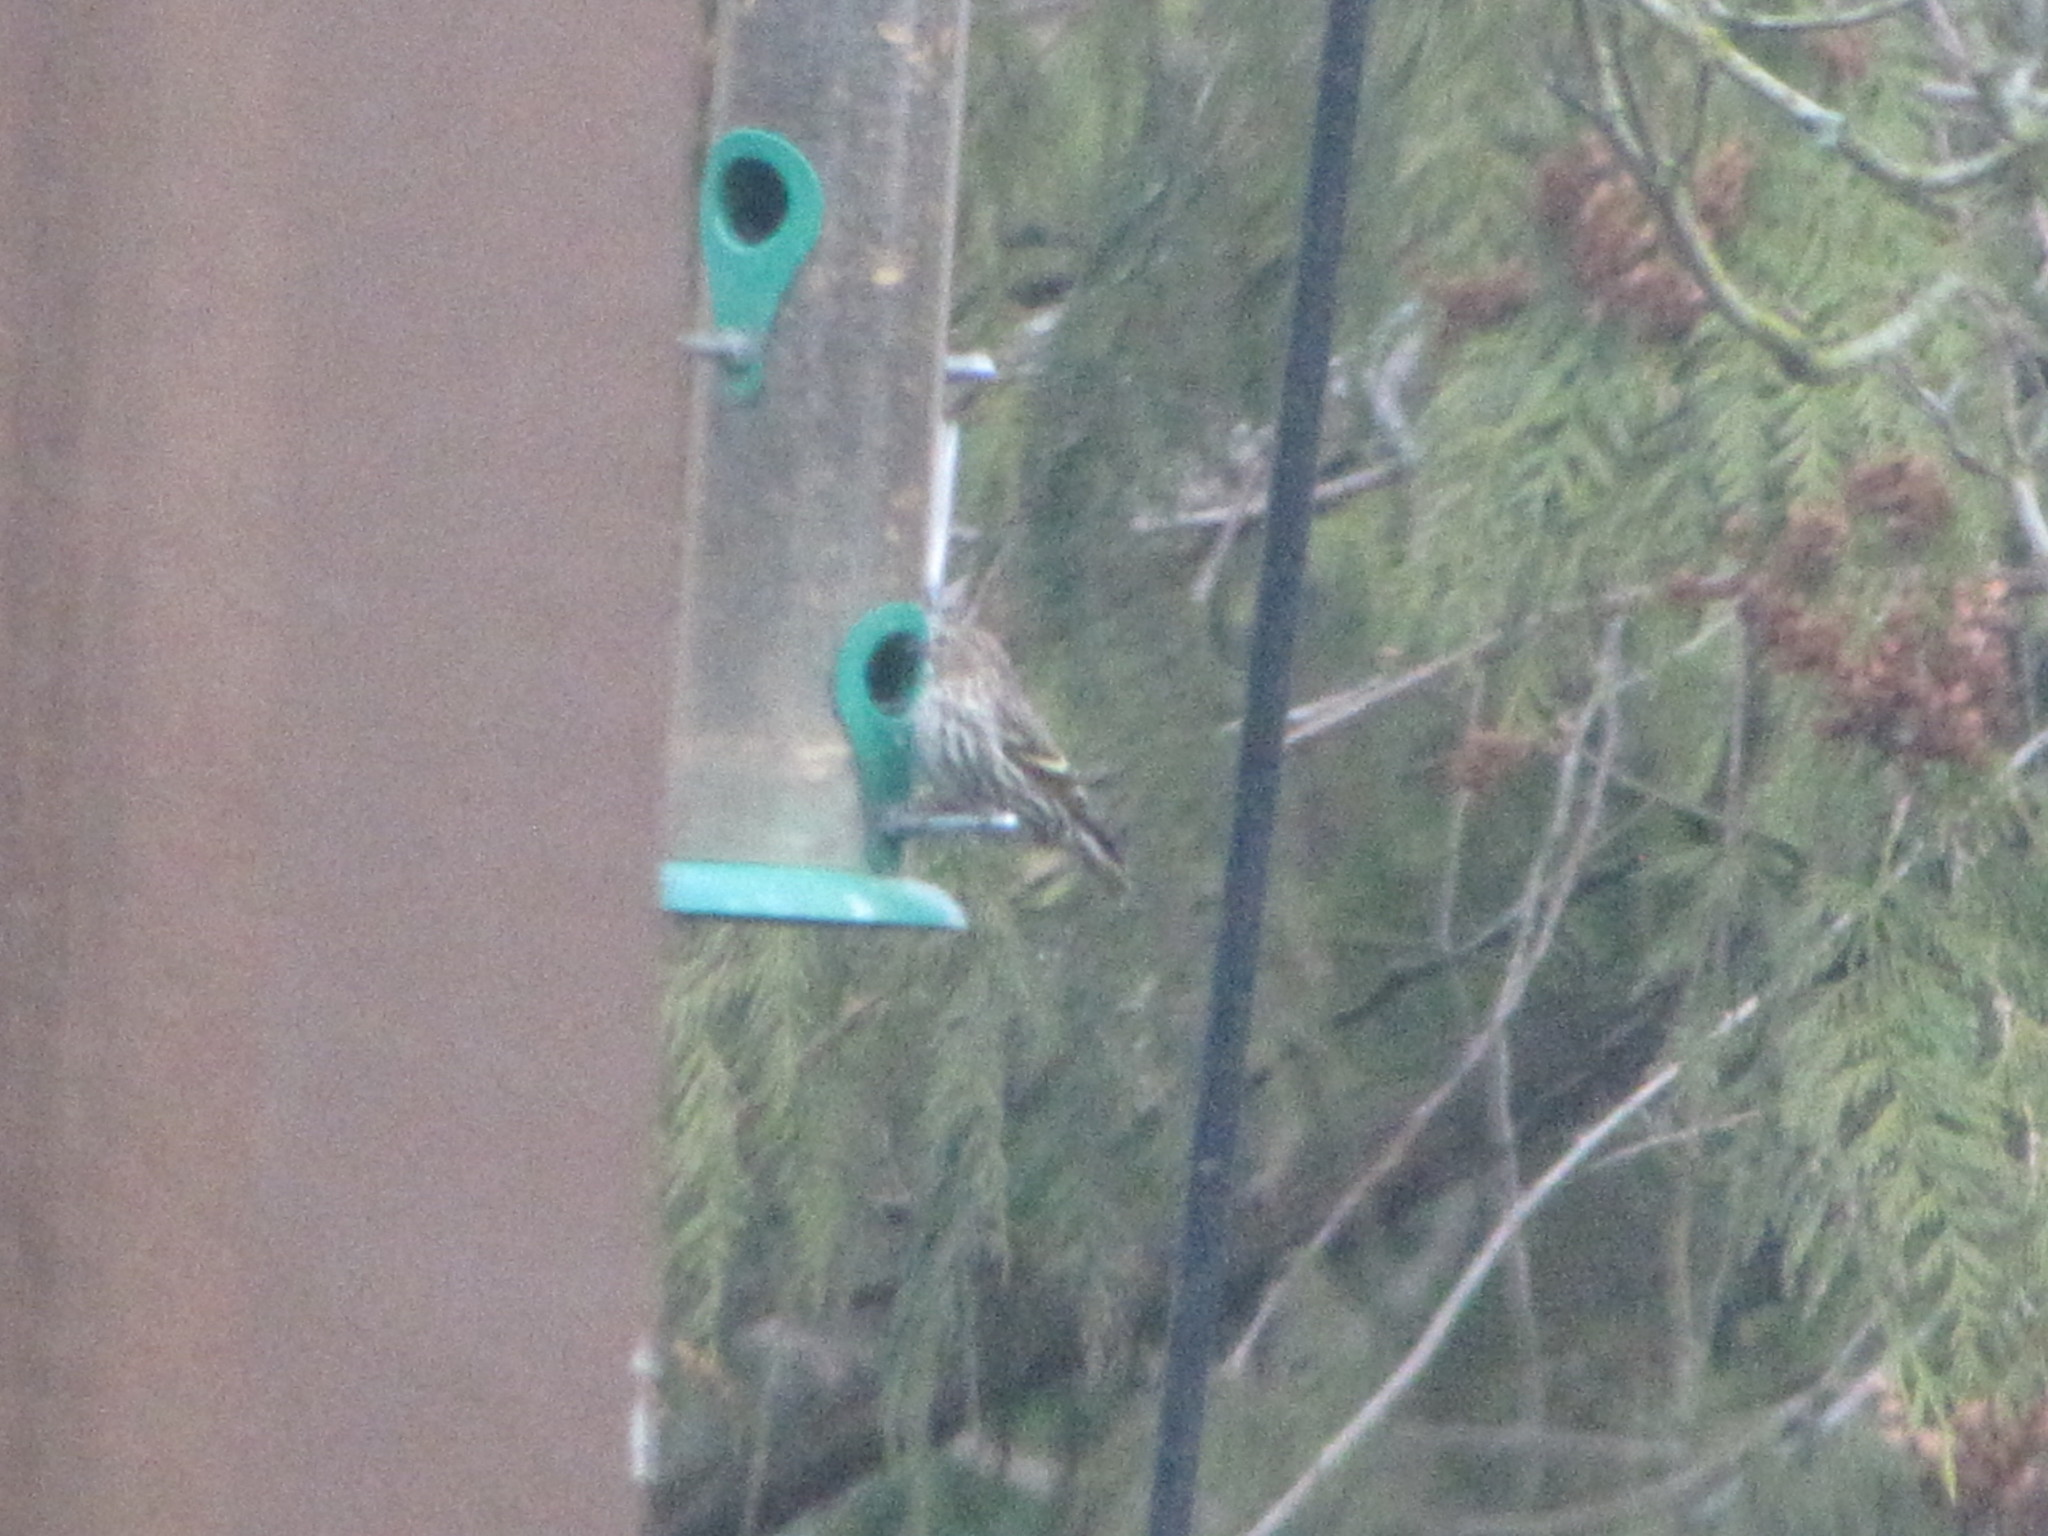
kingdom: Animalia
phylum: Chordata
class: Aves
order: Passeriformes
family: Fringillidae
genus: Spinus
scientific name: Spinus pinus
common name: Pine siskin
